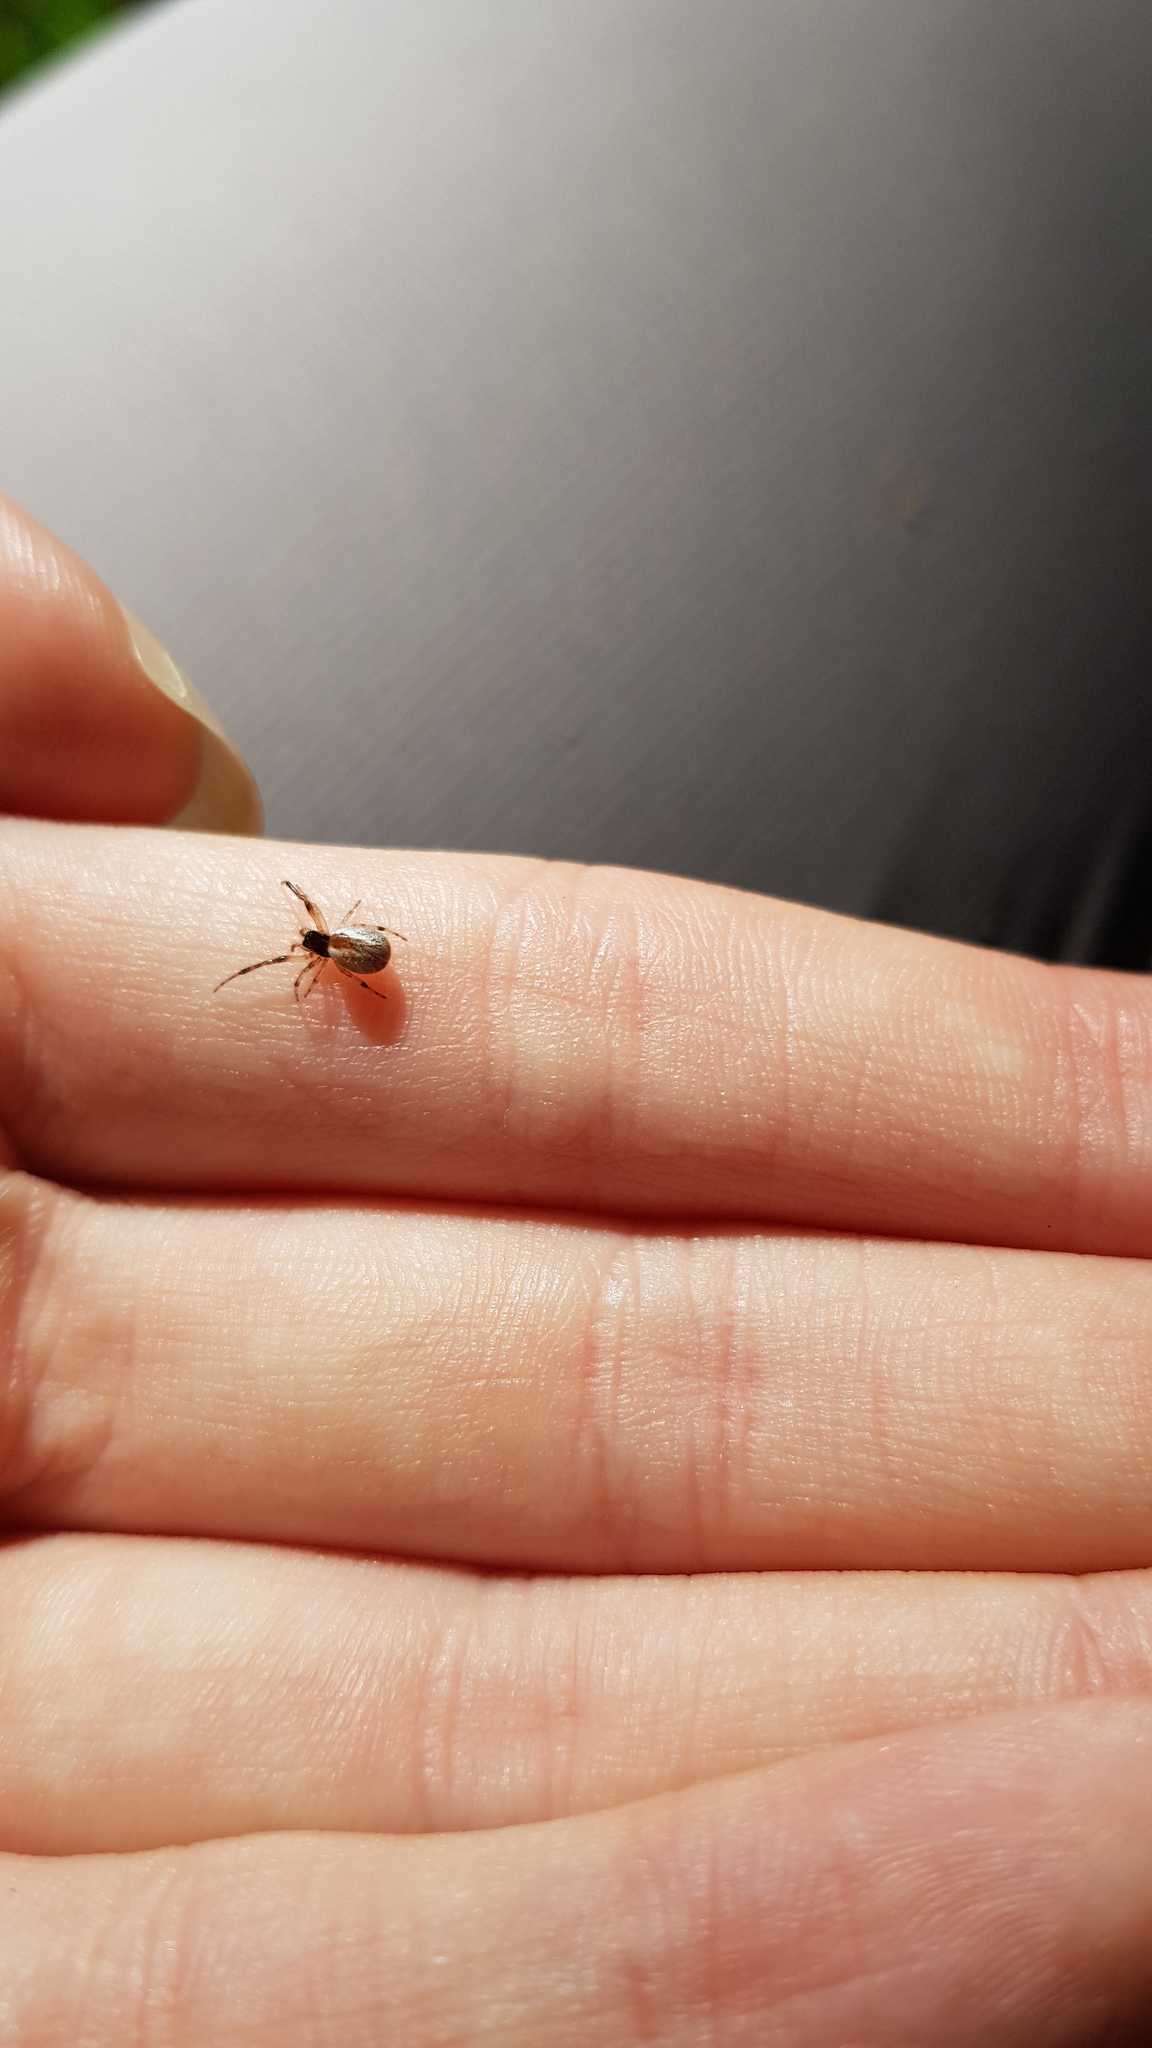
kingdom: Animalia
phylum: Arthropoda
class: Arachnida
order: Araneae
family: Theridiidae
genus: Theridion
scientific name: Theridion theridioides
